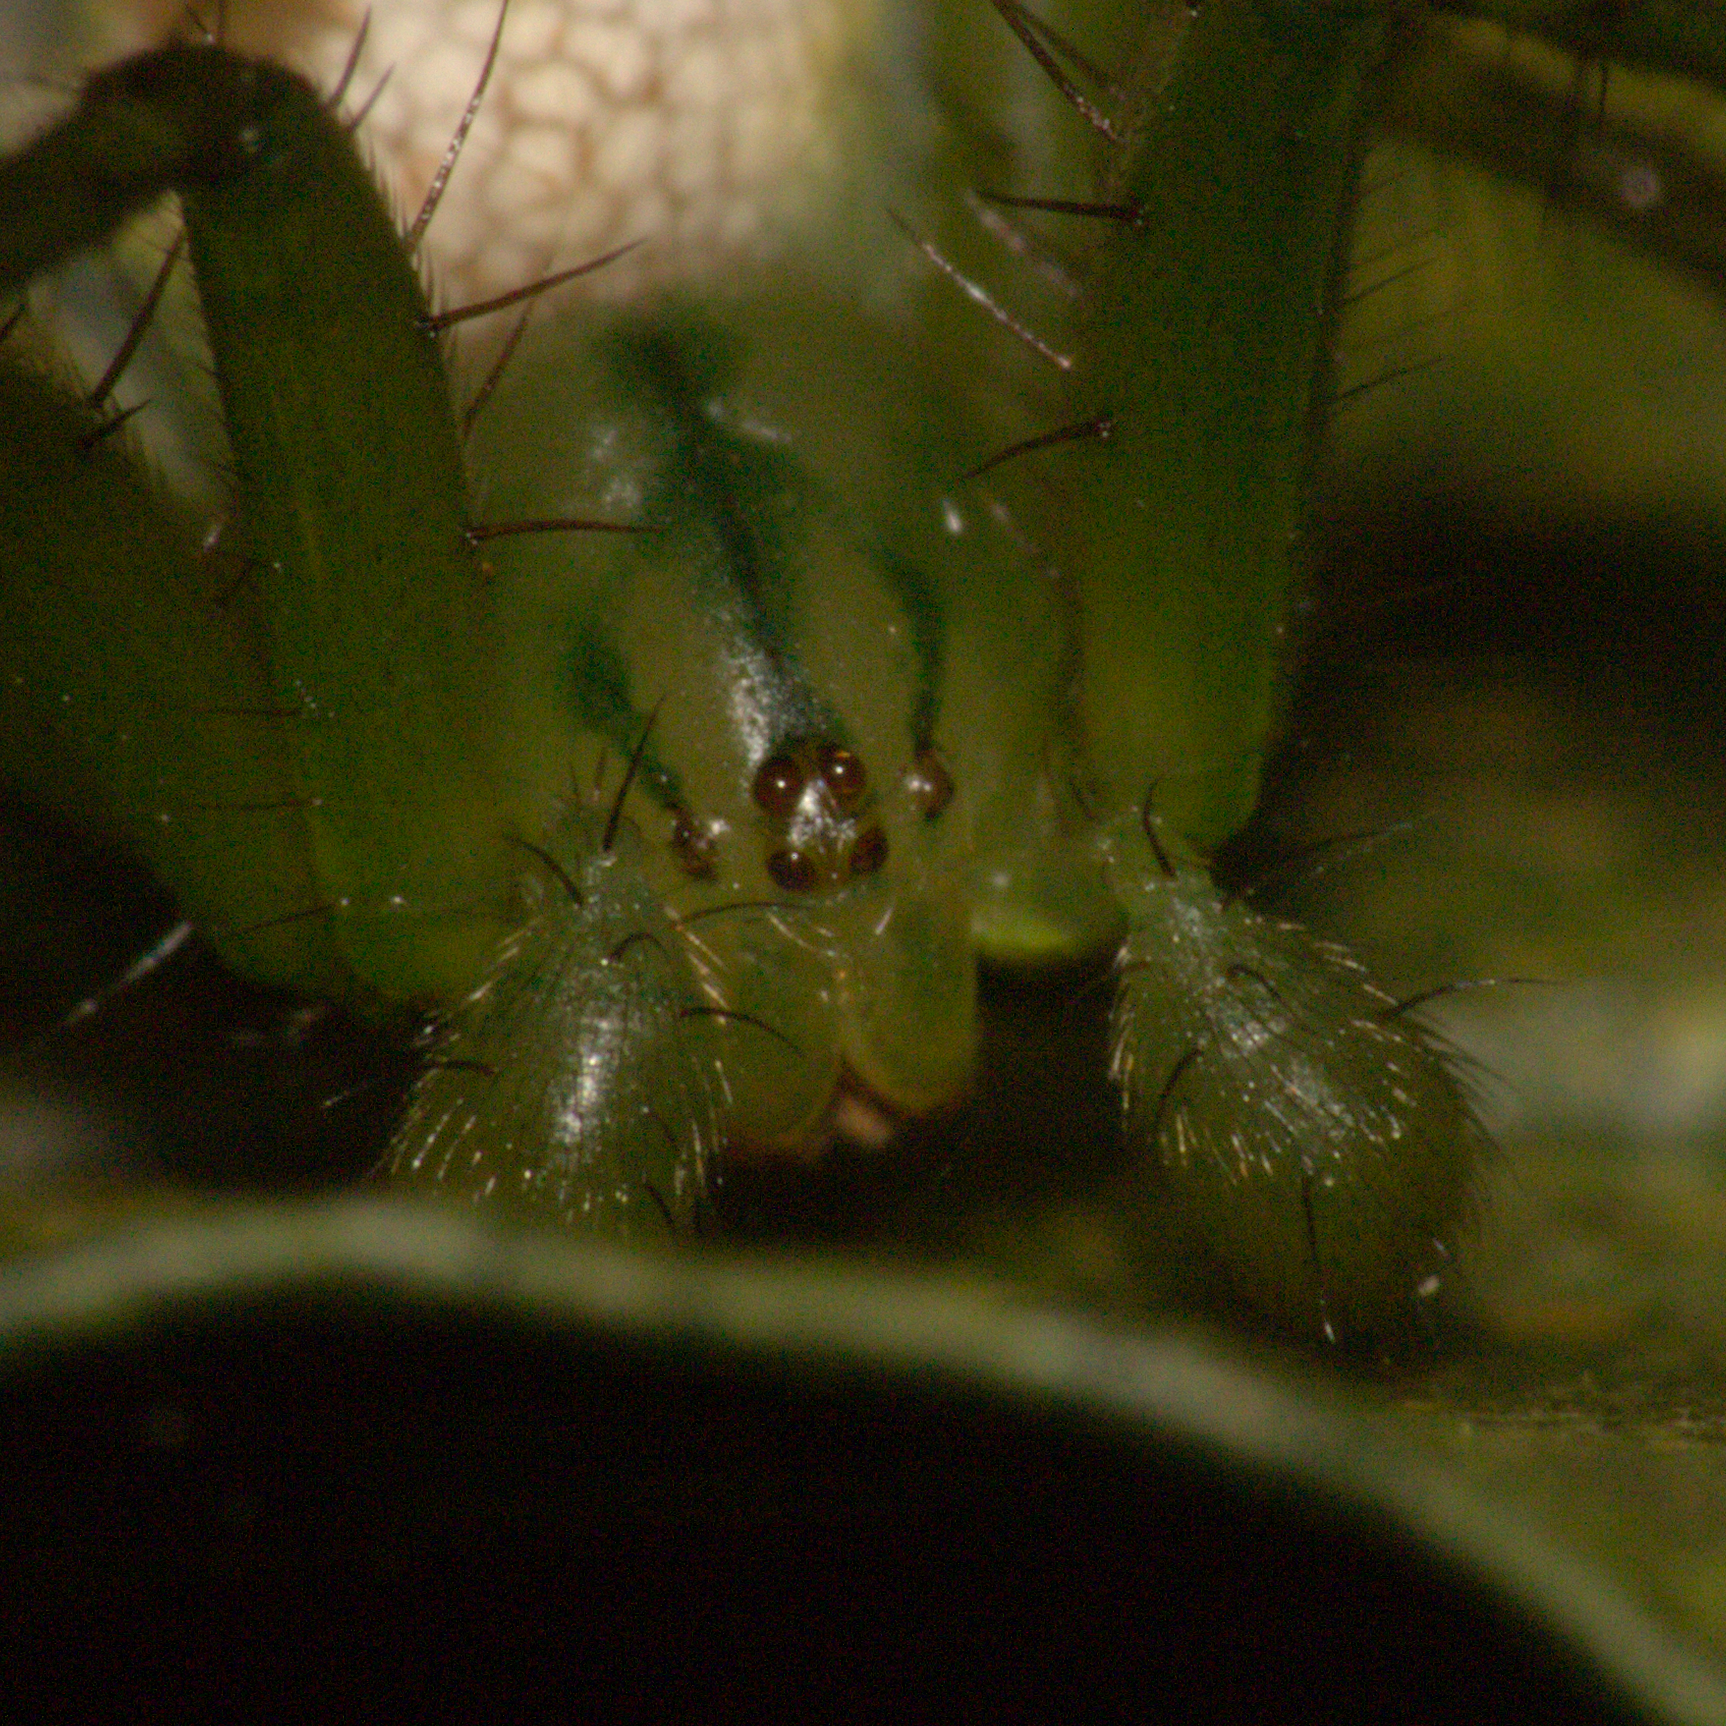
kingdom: Animalia
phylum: Arthropoda
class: Arachnida
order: Araneae
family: Araneidae
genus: Mangora
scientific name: Mangora strenua
